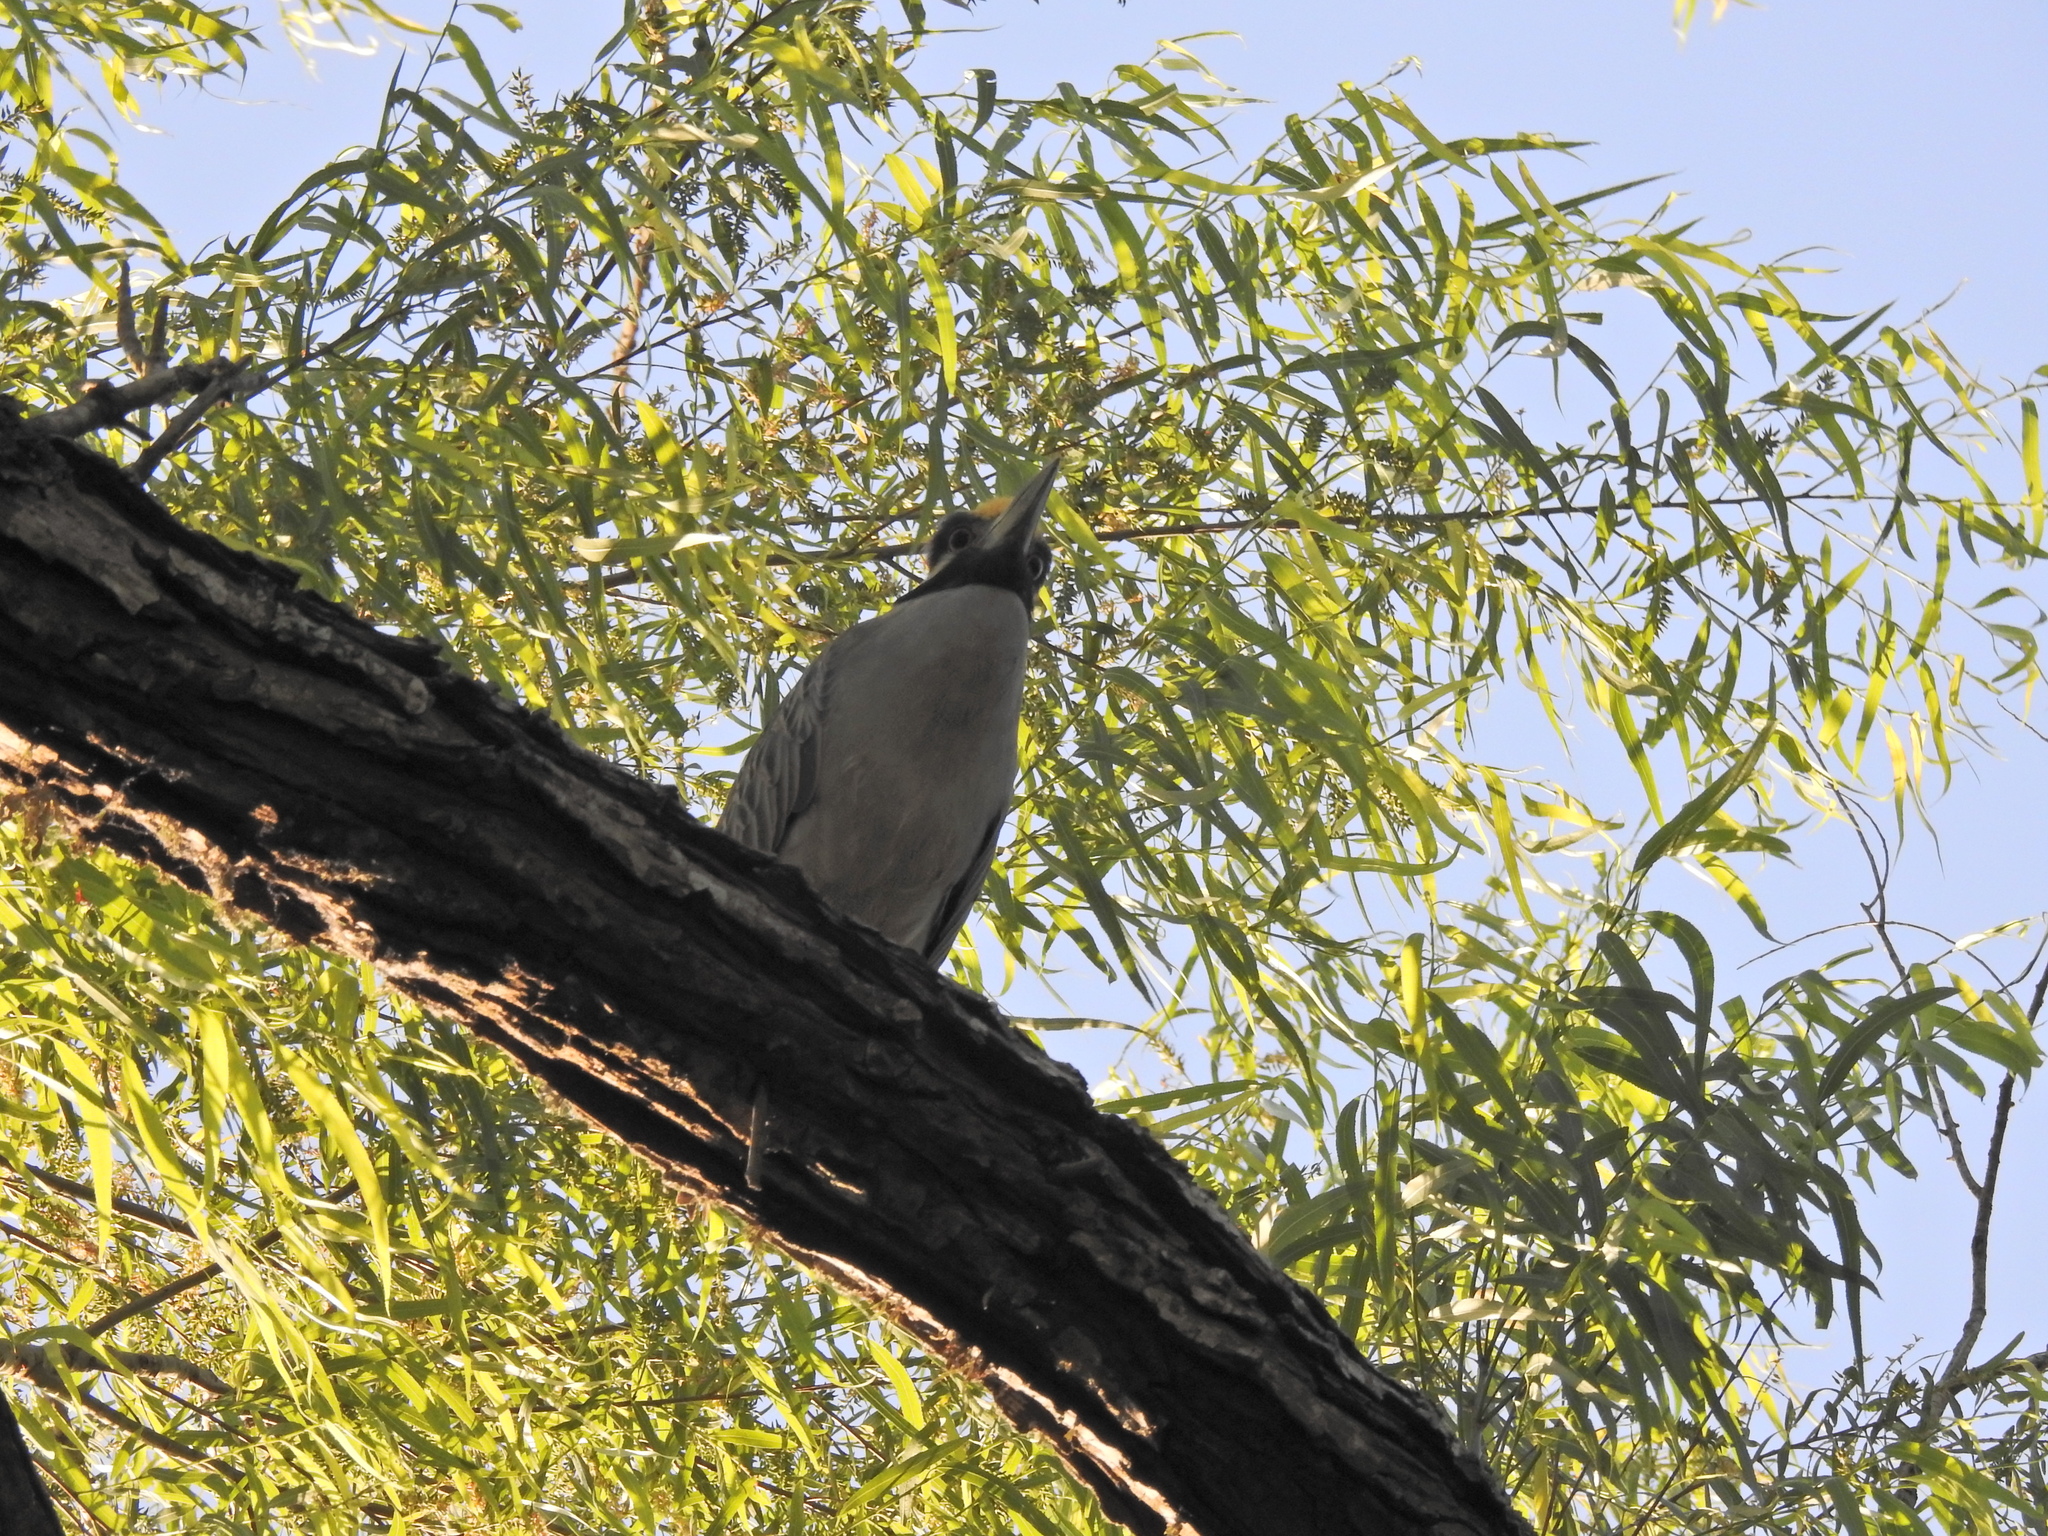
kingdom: Animalia
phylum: Chordata
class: Aves
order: Pelecaniformes
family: Ardeidae
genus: Nyctanassa
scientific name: Nyctanassa violacea
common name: Yellow-crowned night heron
